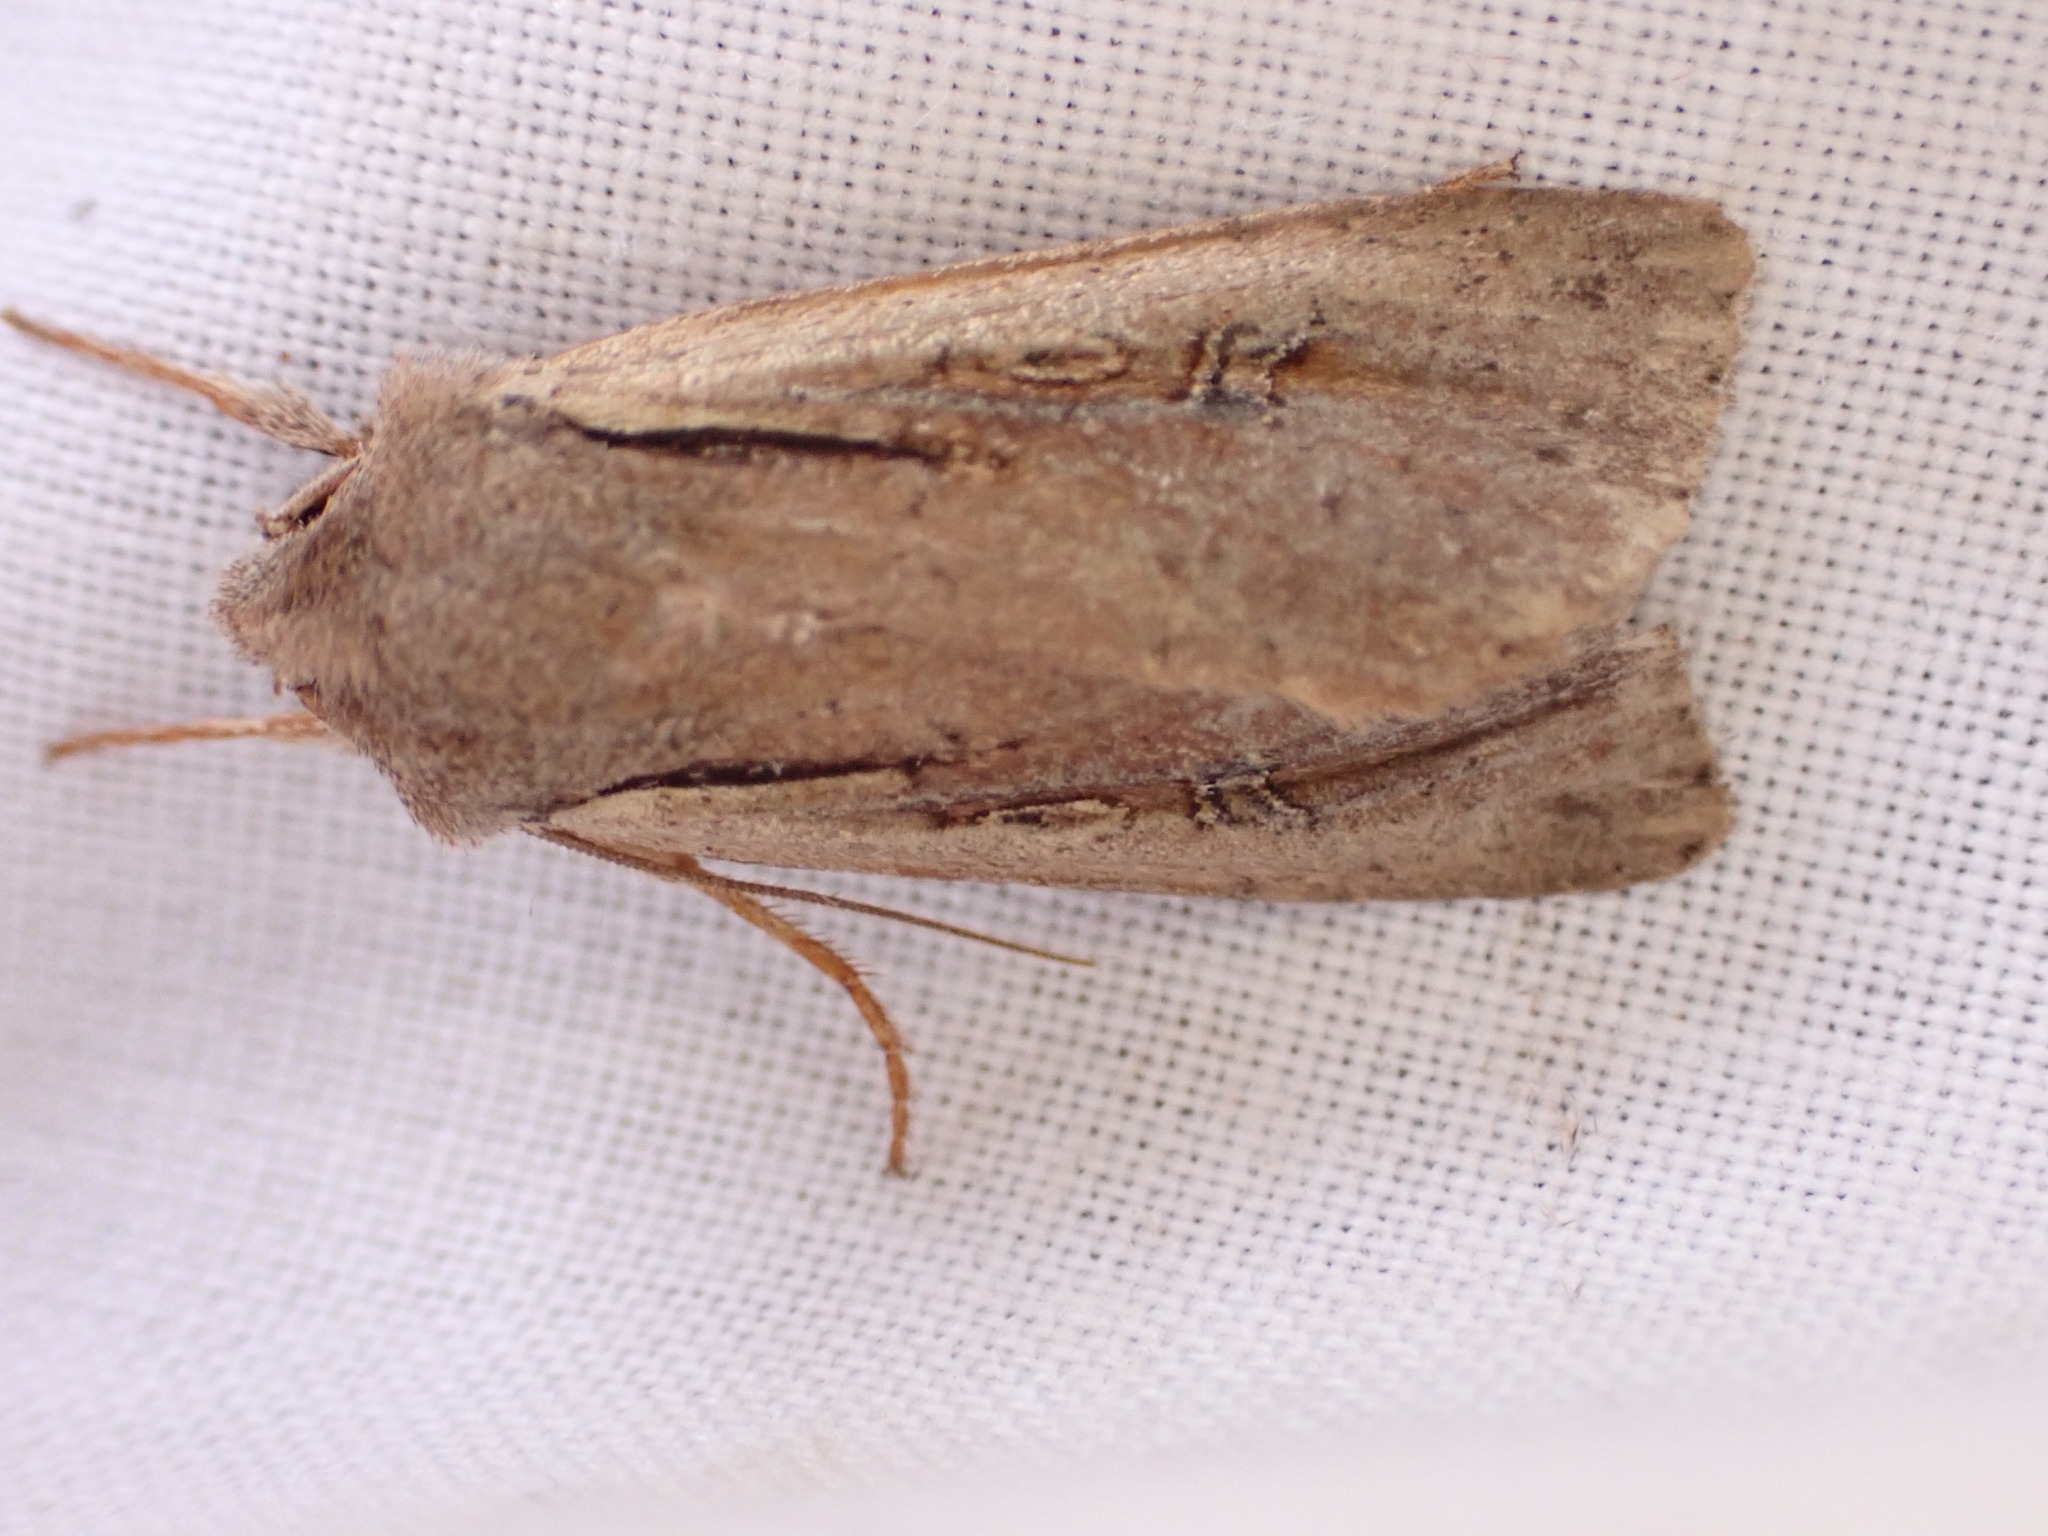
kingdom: Animalia
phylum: Arthropoda
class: Insecta
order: Lepidoptera
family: Noctuidae
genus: Ichneutica
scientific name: Ichneutica atristriga
